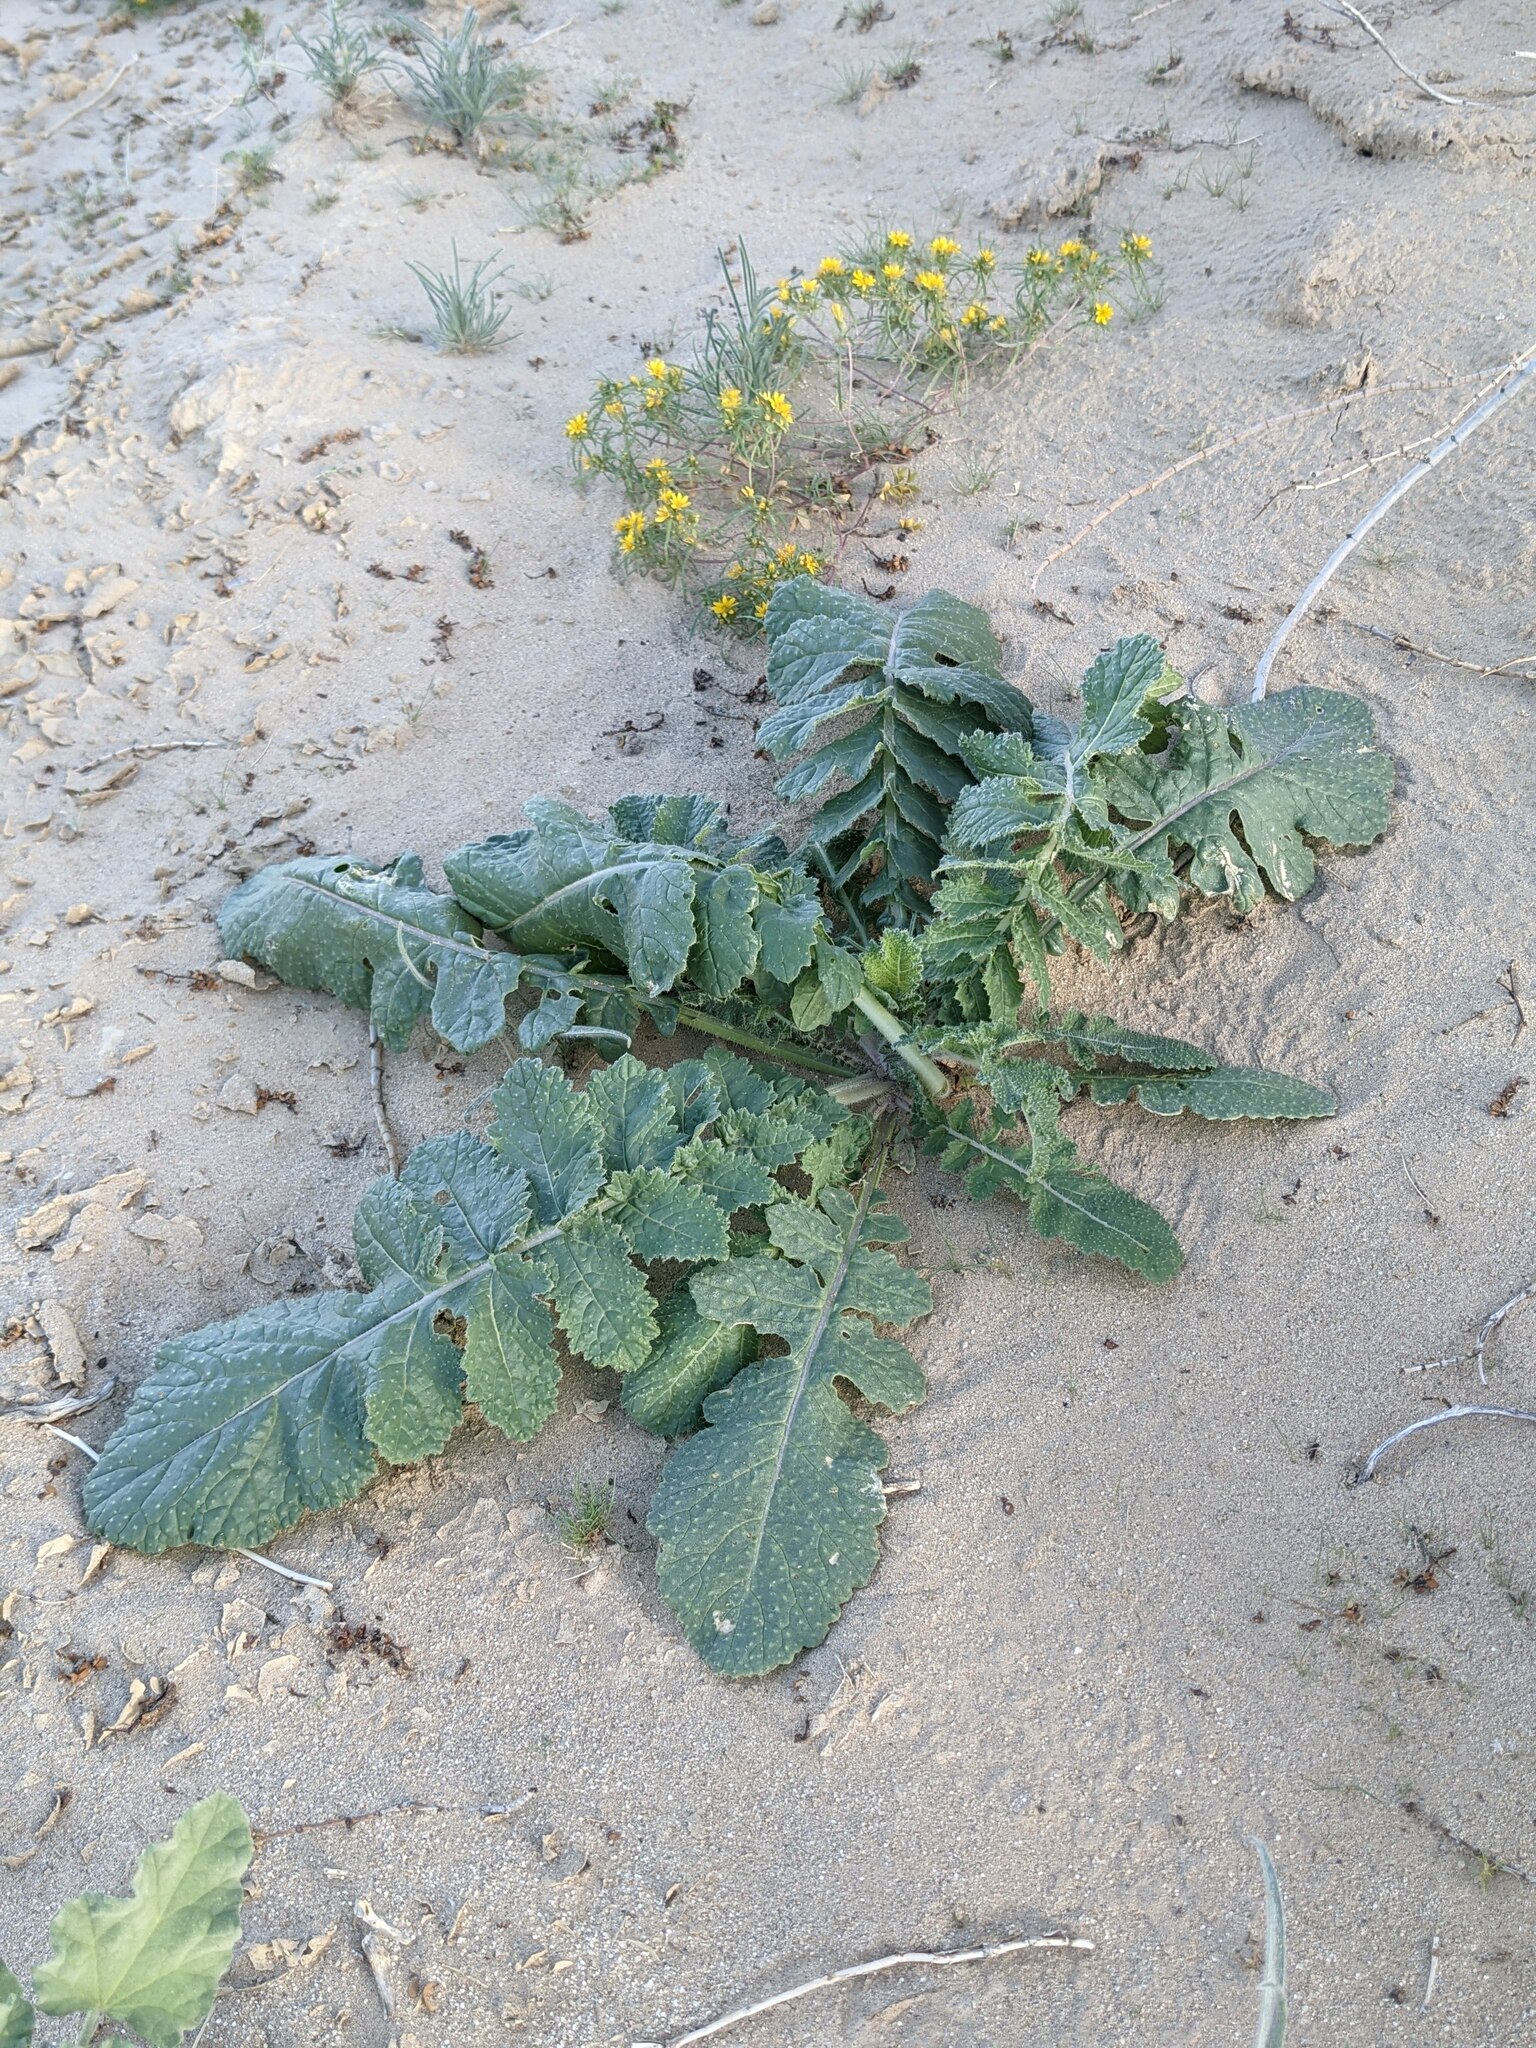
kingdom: Plantae
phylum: Tracheophyta
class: Magnoliopsida
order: Brassicales
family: Brassicaceae
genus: Brassica
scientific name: Brassica tournefortii
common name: Pale cabbage
